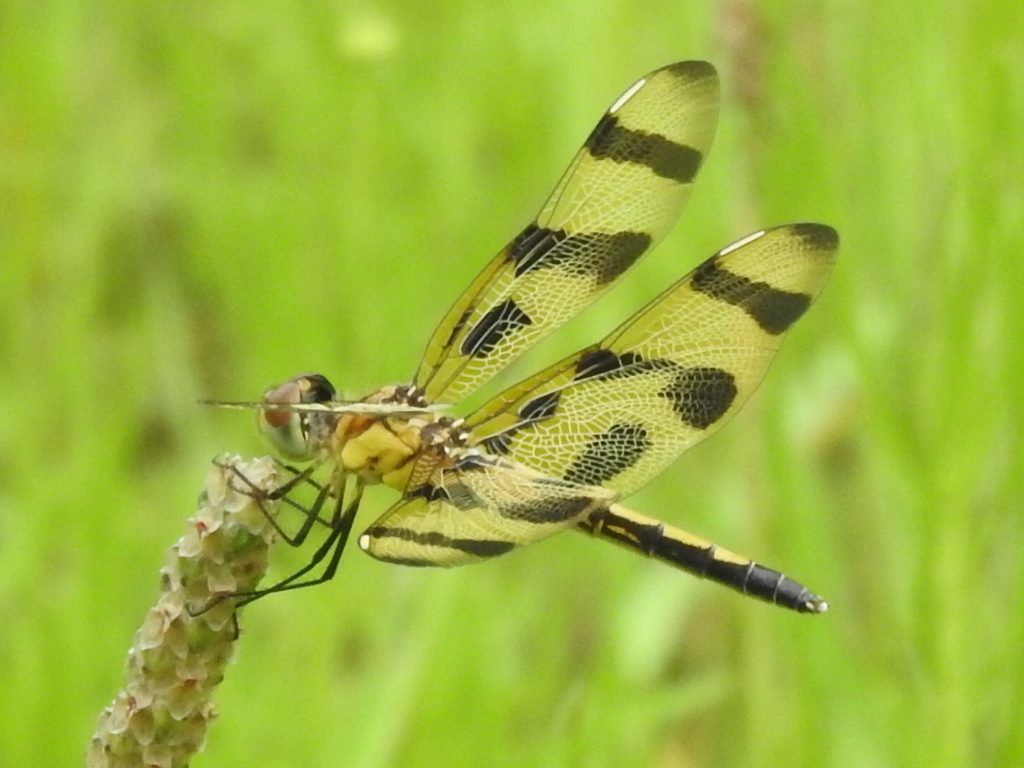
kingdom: Animalia
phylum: Arthropoda
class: Insecta
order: Odonata
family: Libellulidae
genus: Celithemis
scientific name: Celithemis eponina
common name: Halloween pennant
